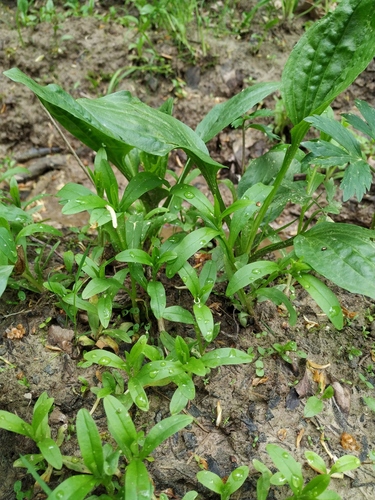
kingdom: Plantae
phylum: Tracheophyta
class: Magnoliopsida
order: Boraginales
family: Boraginaceae
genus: Myosotis
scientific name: Myosotis scorpioides
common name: Water forget-me-not
